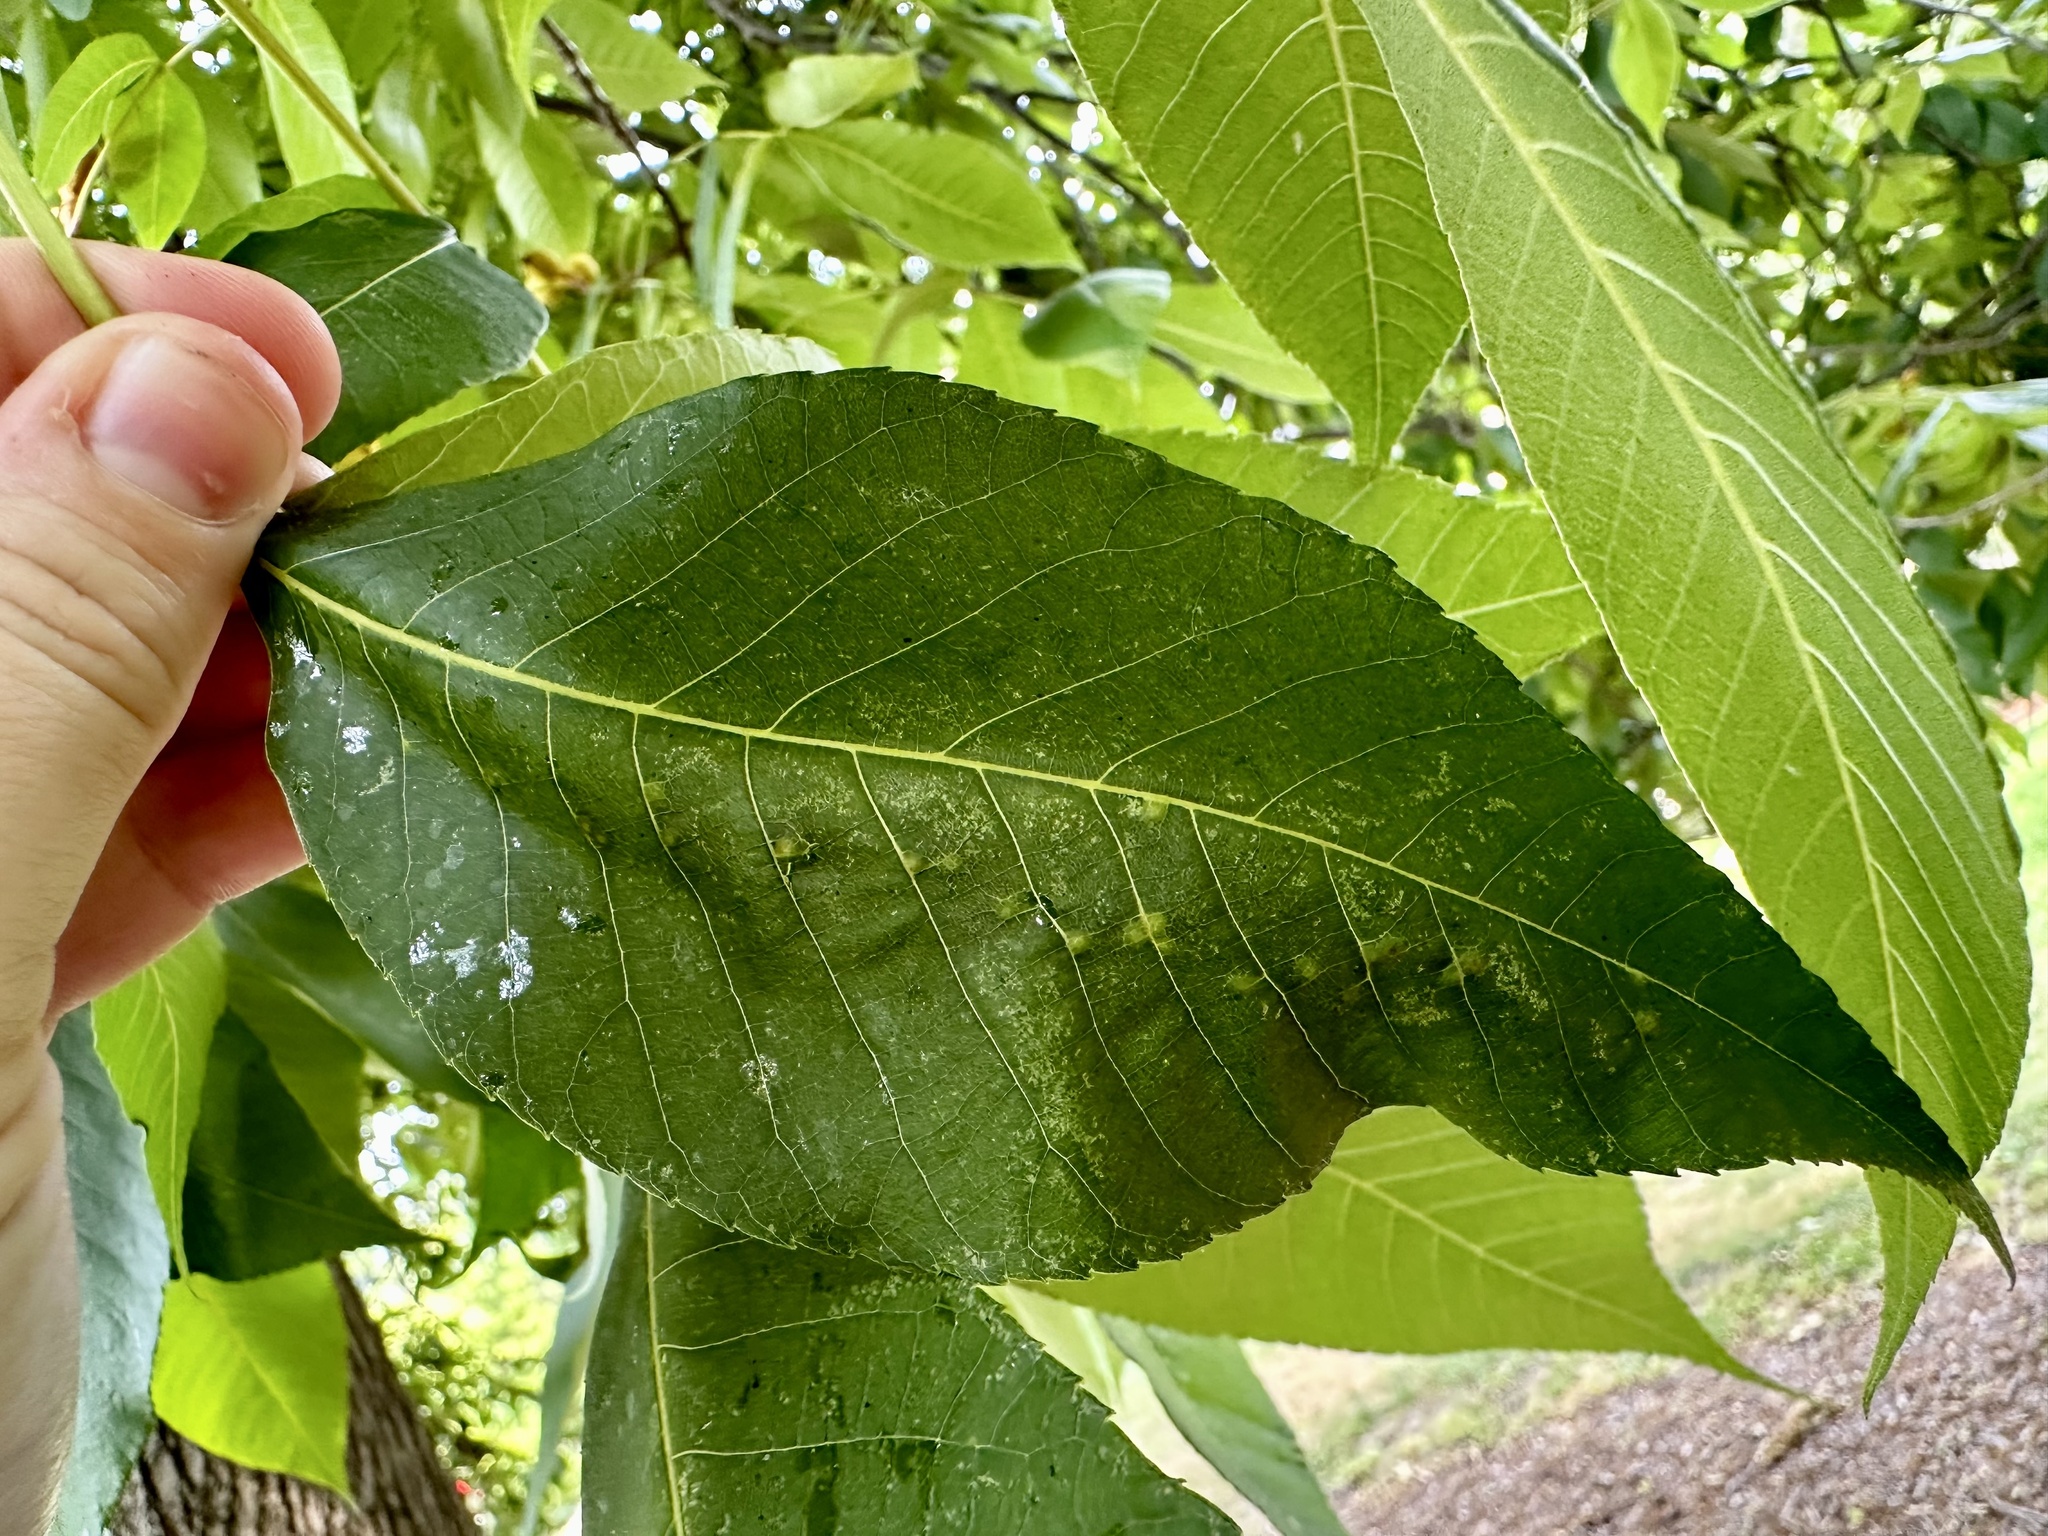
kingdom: Animalia
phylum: Arthropoda
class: Insecta
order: Diptera
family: Cecidomyiidae
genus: Caryomyia
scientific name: Caryomyia tuberculata
